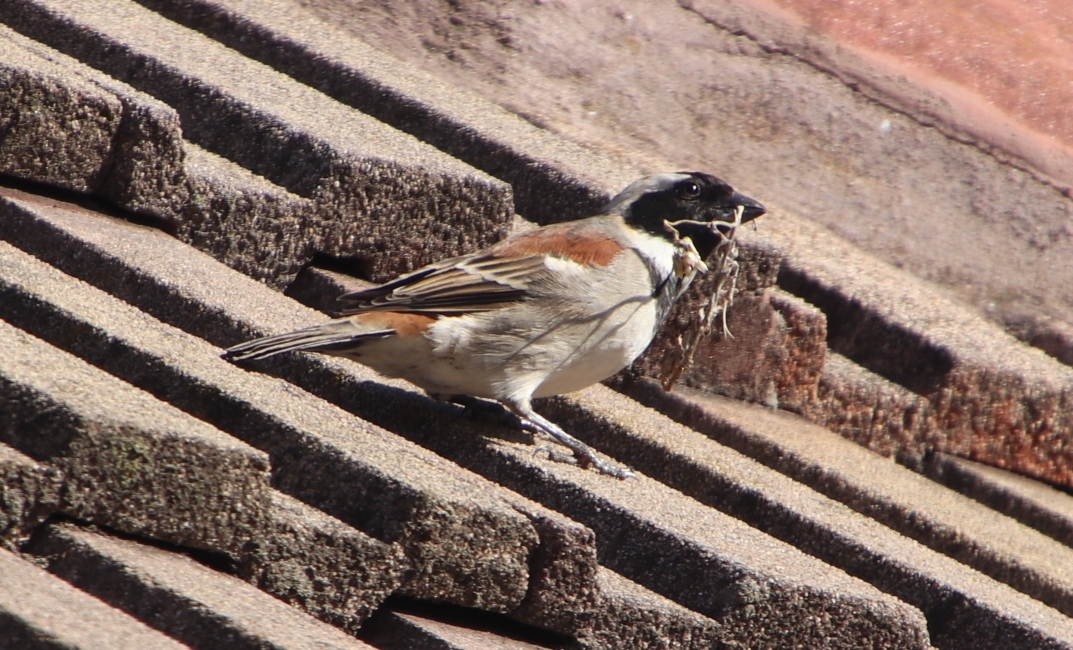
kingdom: Animalia
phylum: Chordata
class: Aves
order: Passeriformes
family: Passeridae
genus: Passer
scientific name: Passer melanurus
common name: Cape sparrow
